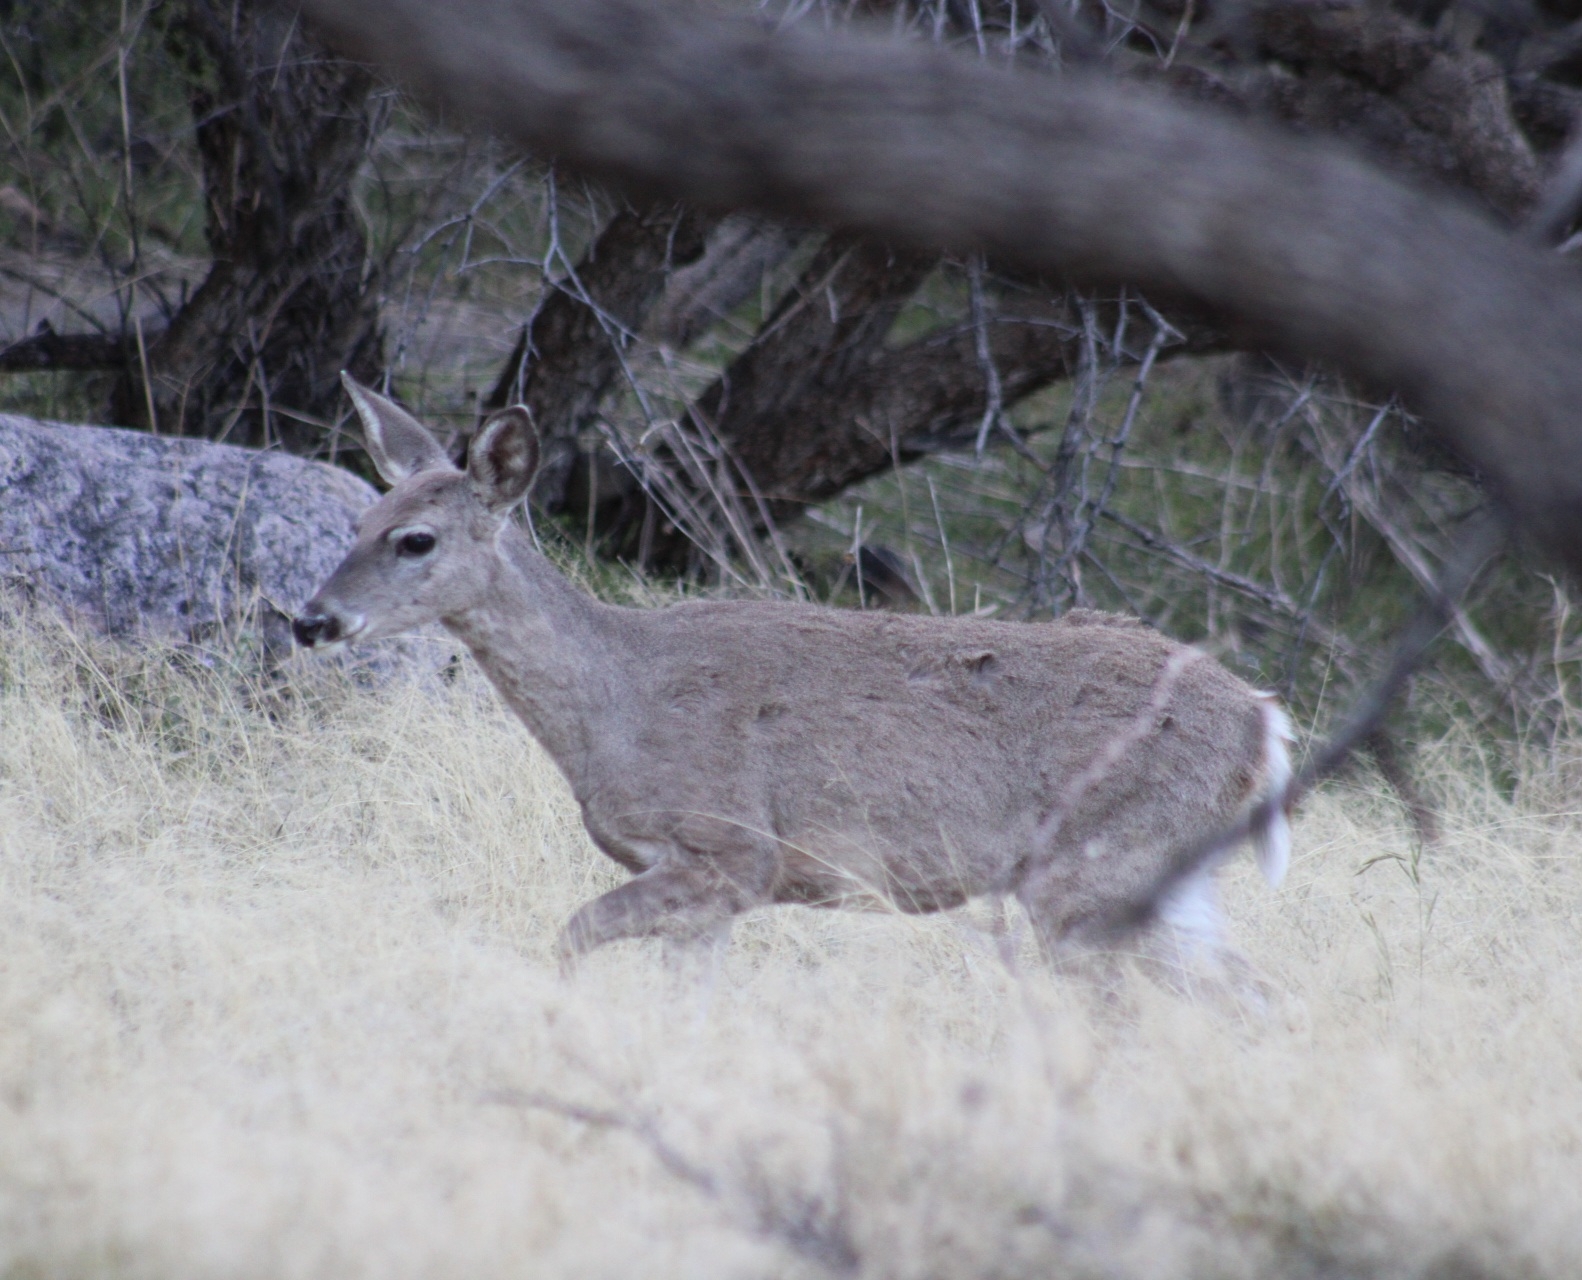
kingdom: Animalia
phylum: Chordata
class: Mammalia
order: Artiodactyla
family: Cervidae
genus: Odocoileus
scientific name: Odocoileus virginianus
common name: White-tailed deer
